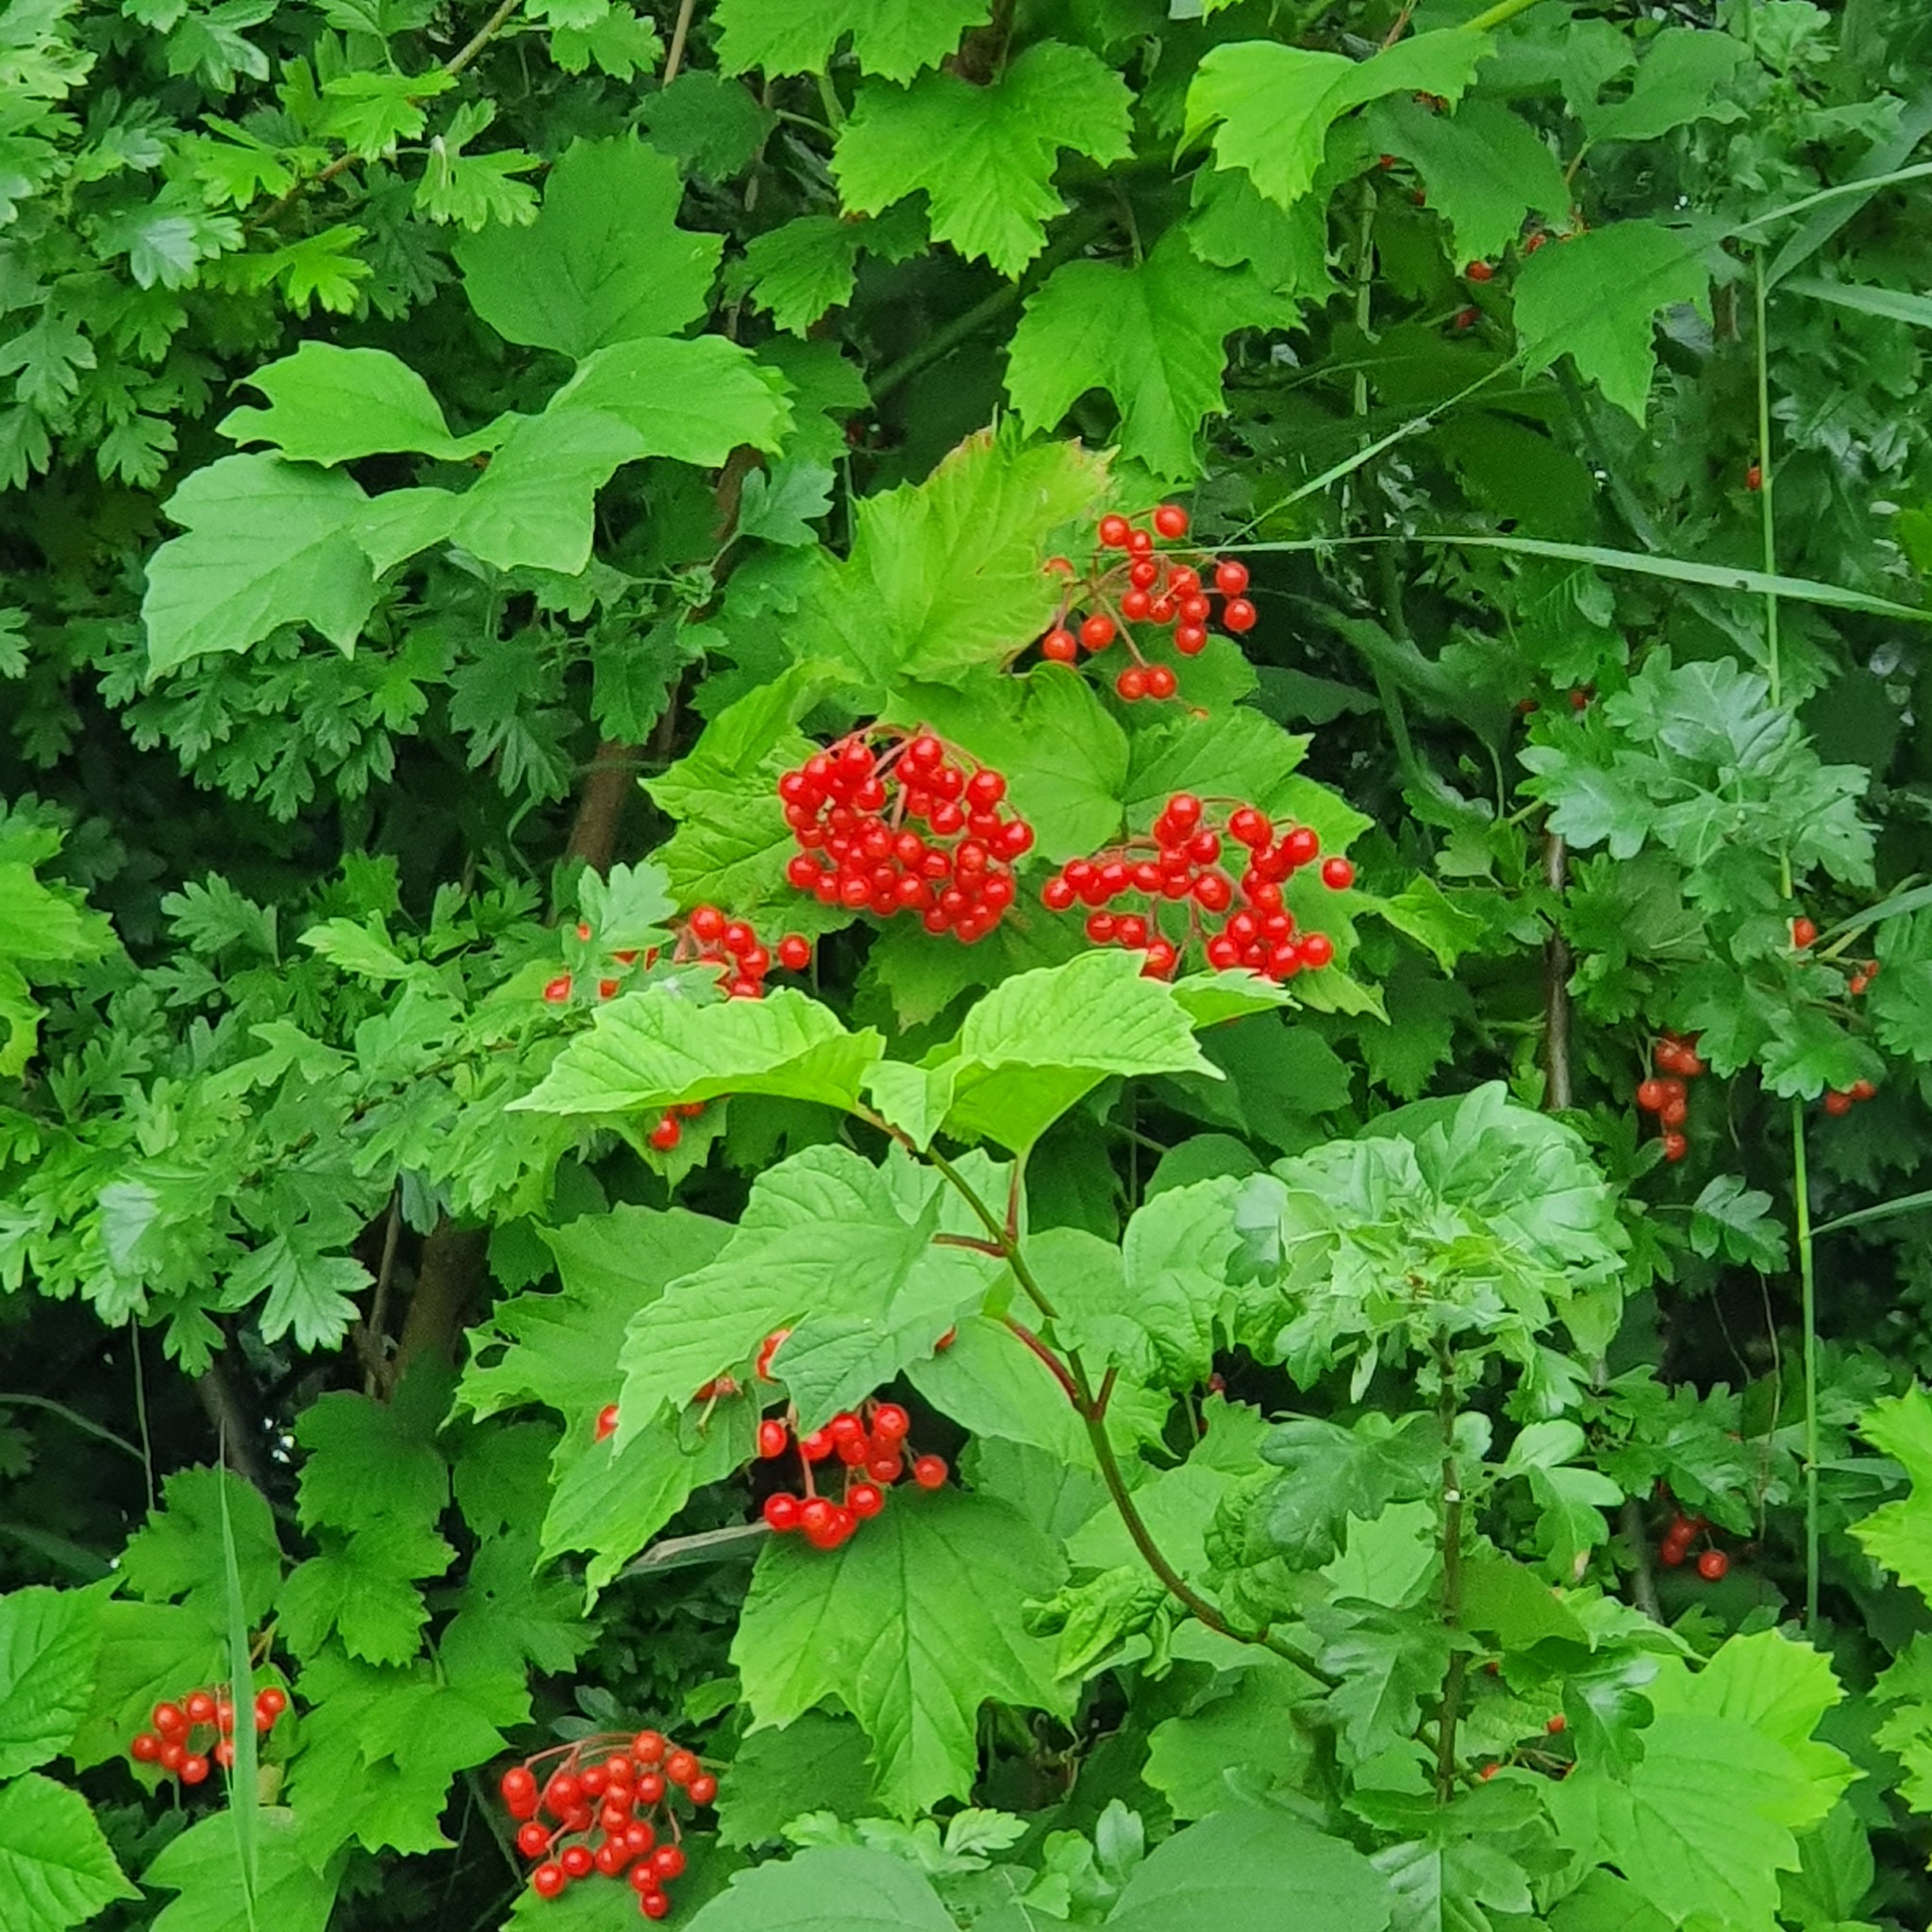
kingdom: Plantae
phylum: Tracheophyta
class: Magnoliopsida
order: Dipsacales
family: Viburnaceae
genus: Viburnum
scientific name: Viburnum opulus
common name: Guelder-rose
